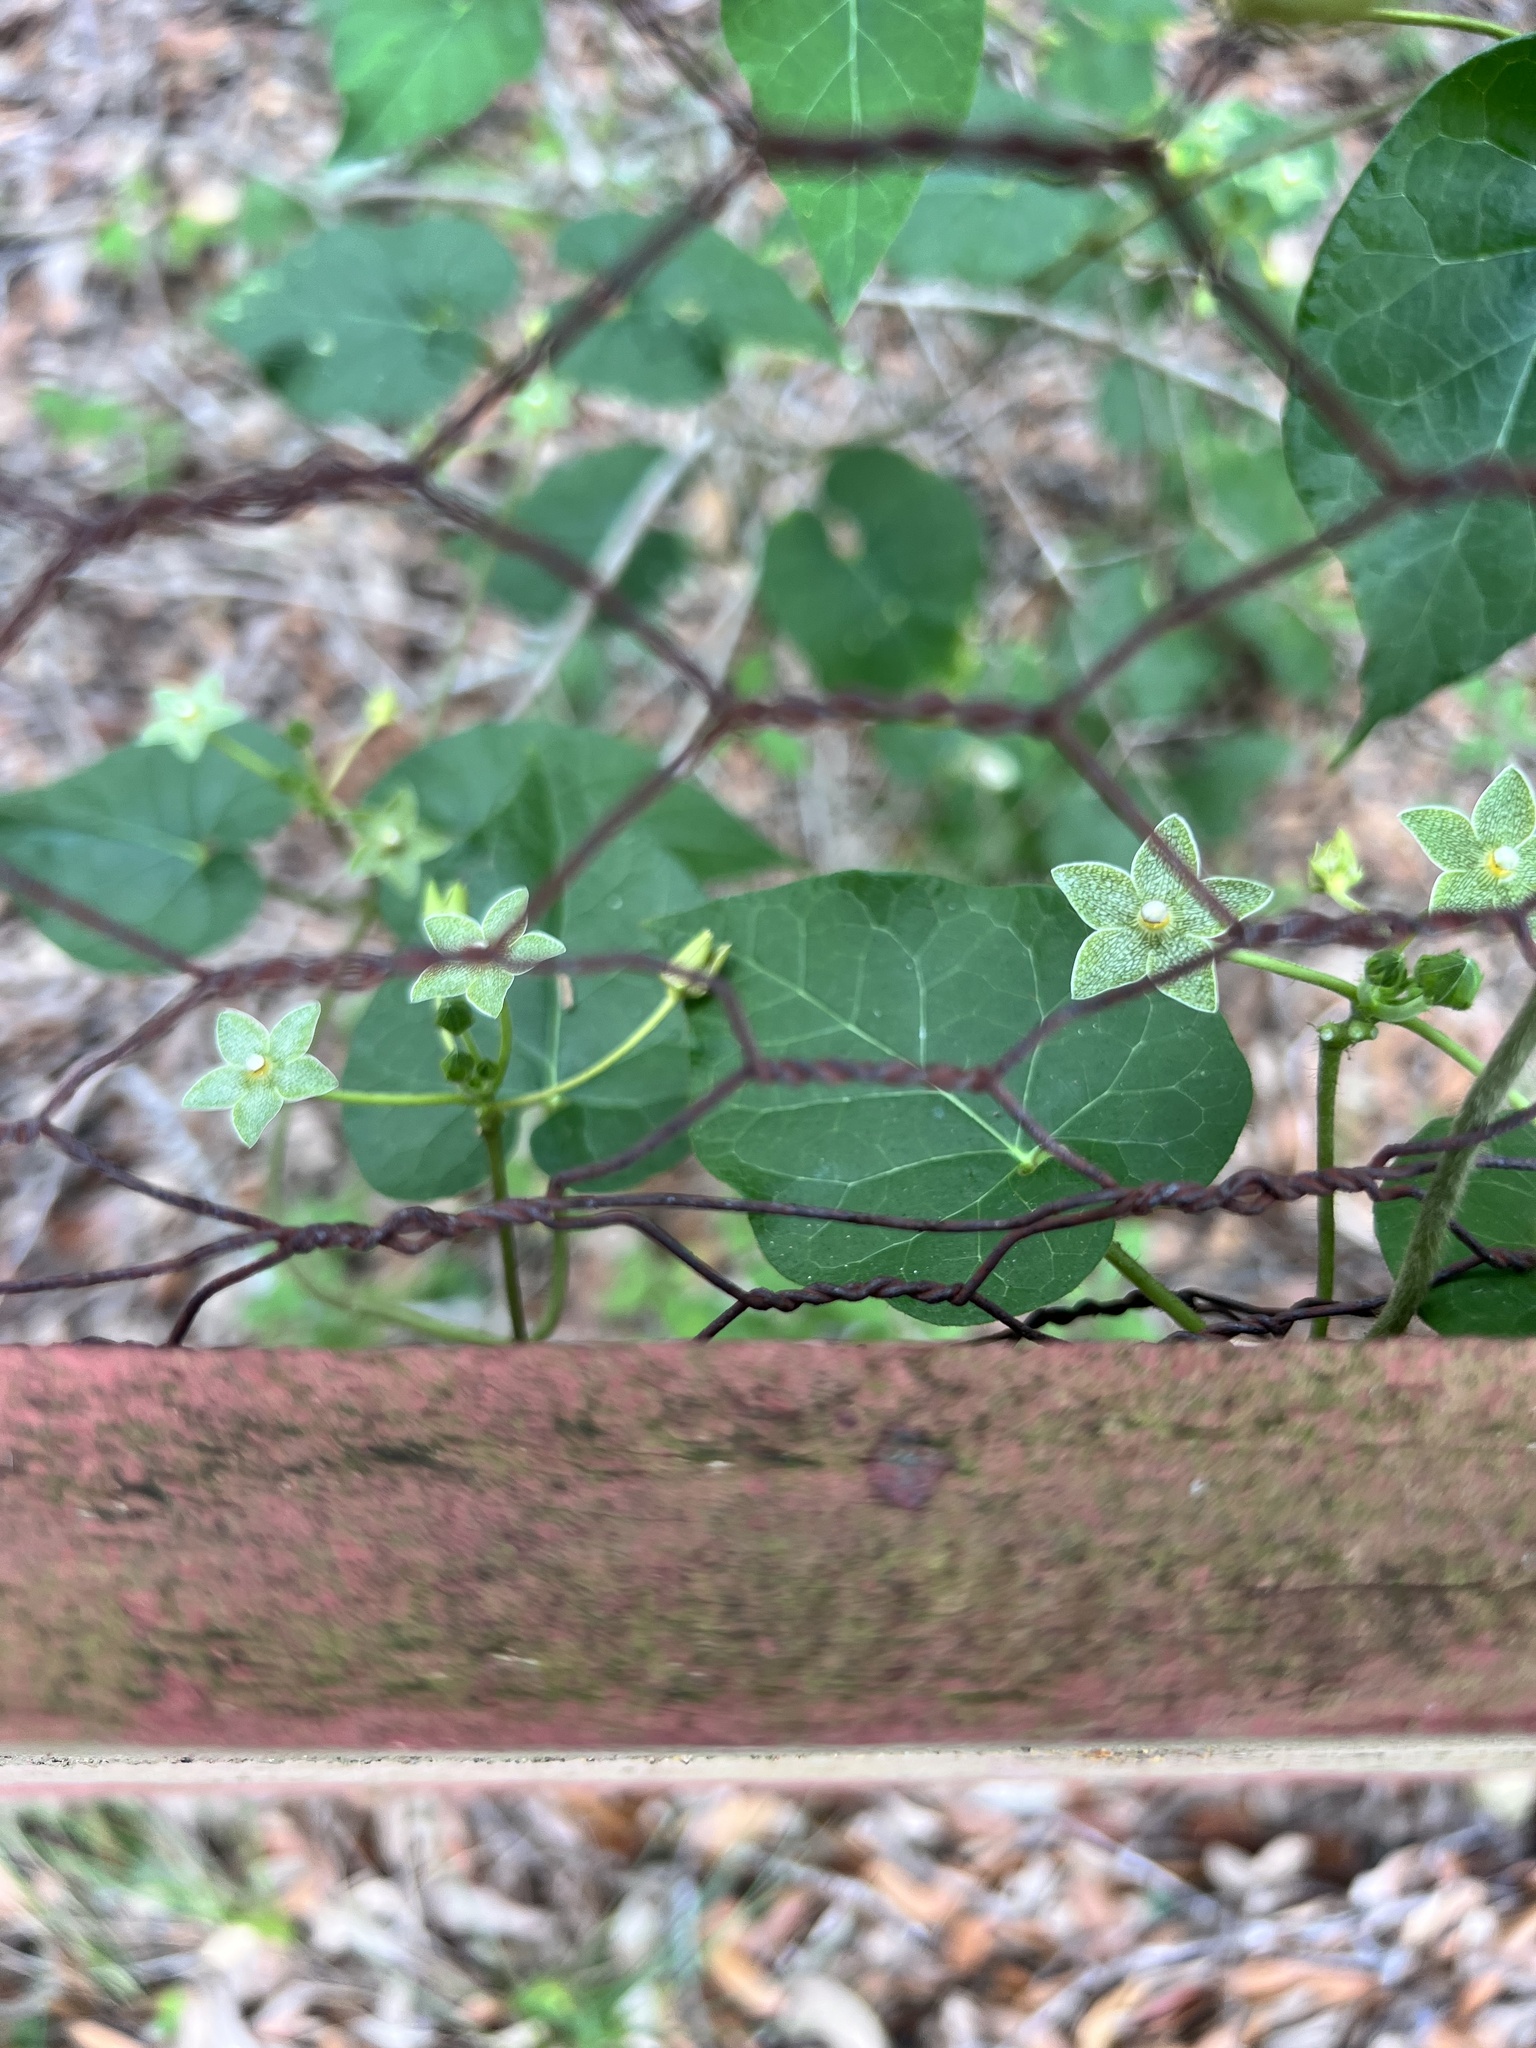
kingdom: Plantae
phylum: Tracheophyta
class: Magnoliopsida
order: Gentianales
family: Apocynaceae
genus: Dictyanthus
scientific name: Dictyanthus reticulatus
